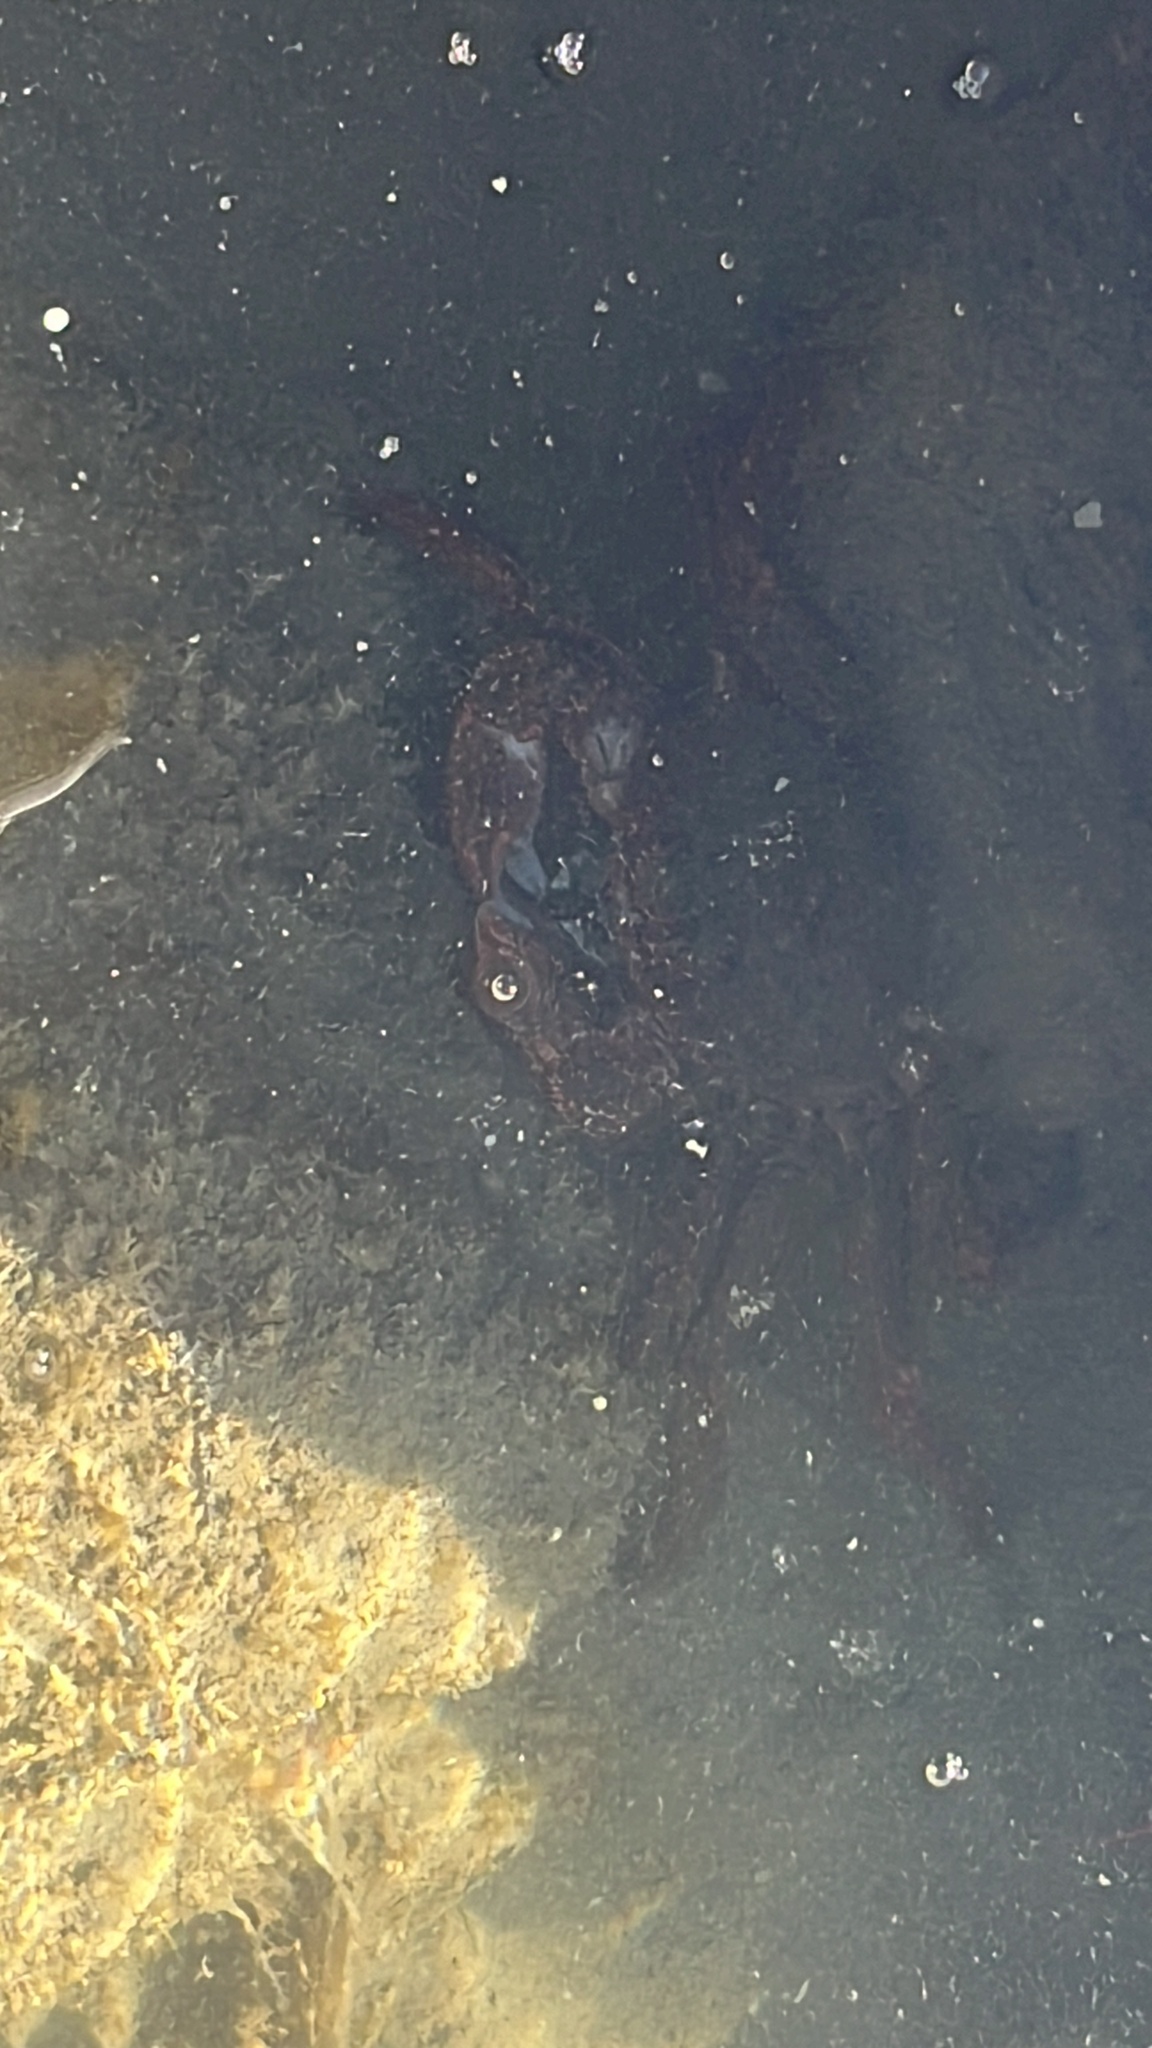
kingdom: Animalia
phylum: Arthropoda
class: Malacostraca
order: Decapoda
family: Plagusiidae
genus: Guinusia
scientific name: Guinusia chabrus
